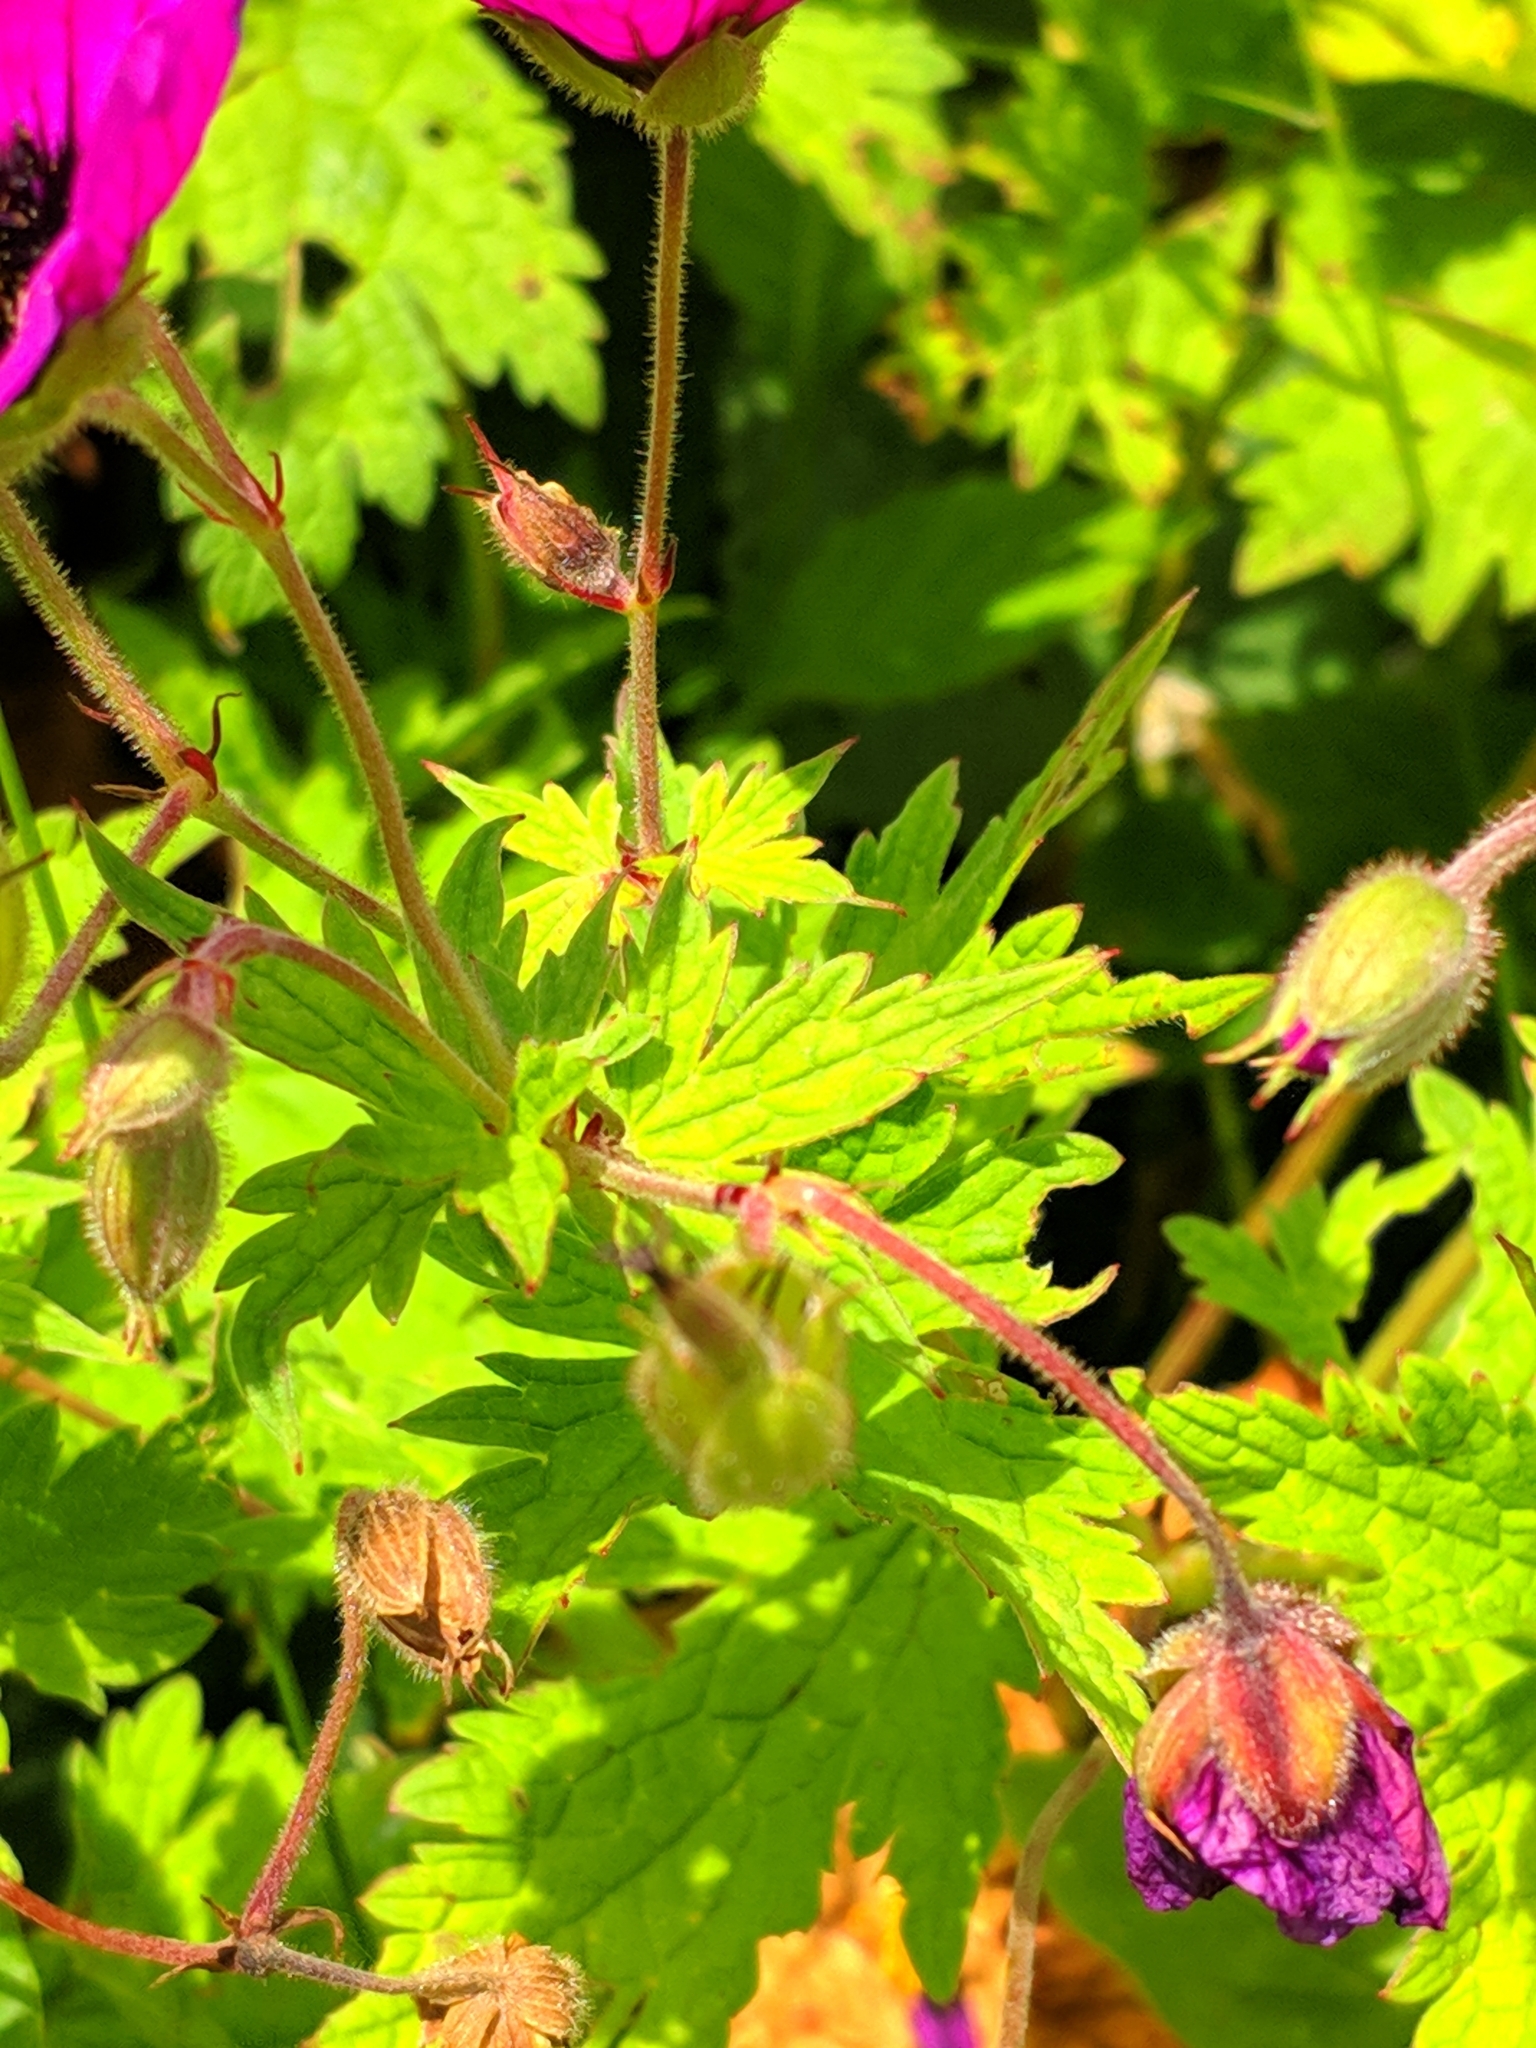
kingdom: Plantae
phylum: Tracheophyta
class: Magnoliopsida
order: Geraniales
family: Geraniaceae
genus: Geranium
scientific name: Geranium psilostemon
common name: Armenian crane's-bill
